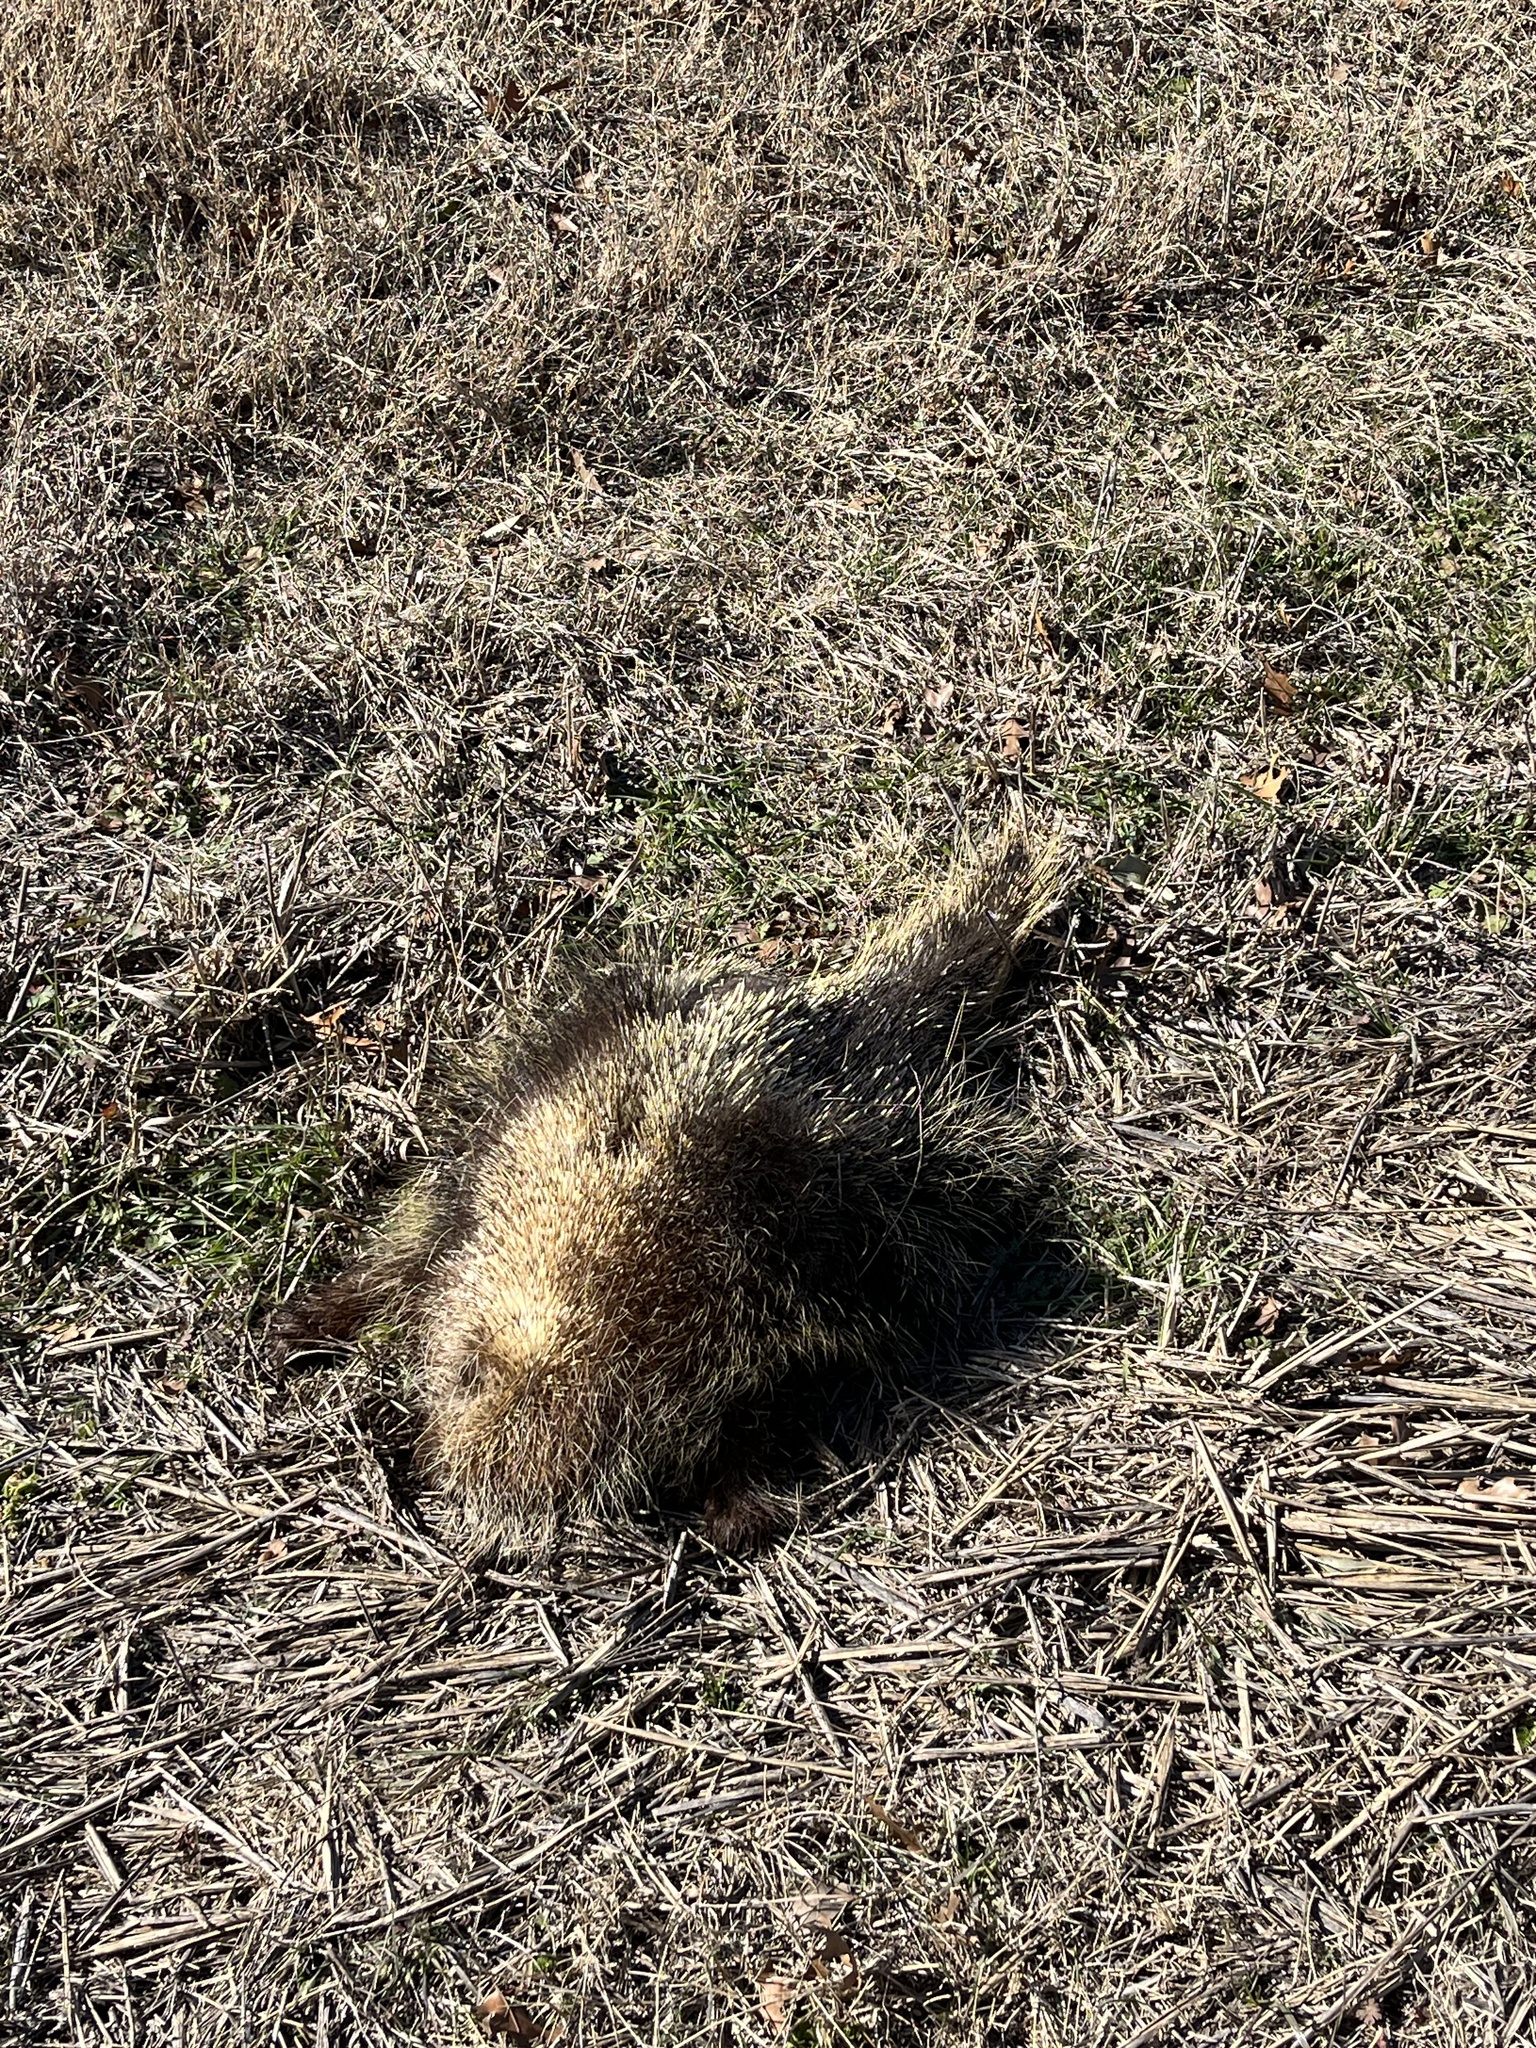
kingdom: Animalia
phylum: Chordata
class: Mammalia
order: Rodentia
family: Erethizontidae
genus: Erethizon
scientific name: Erethizon dorsatus
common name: North american porcupine
